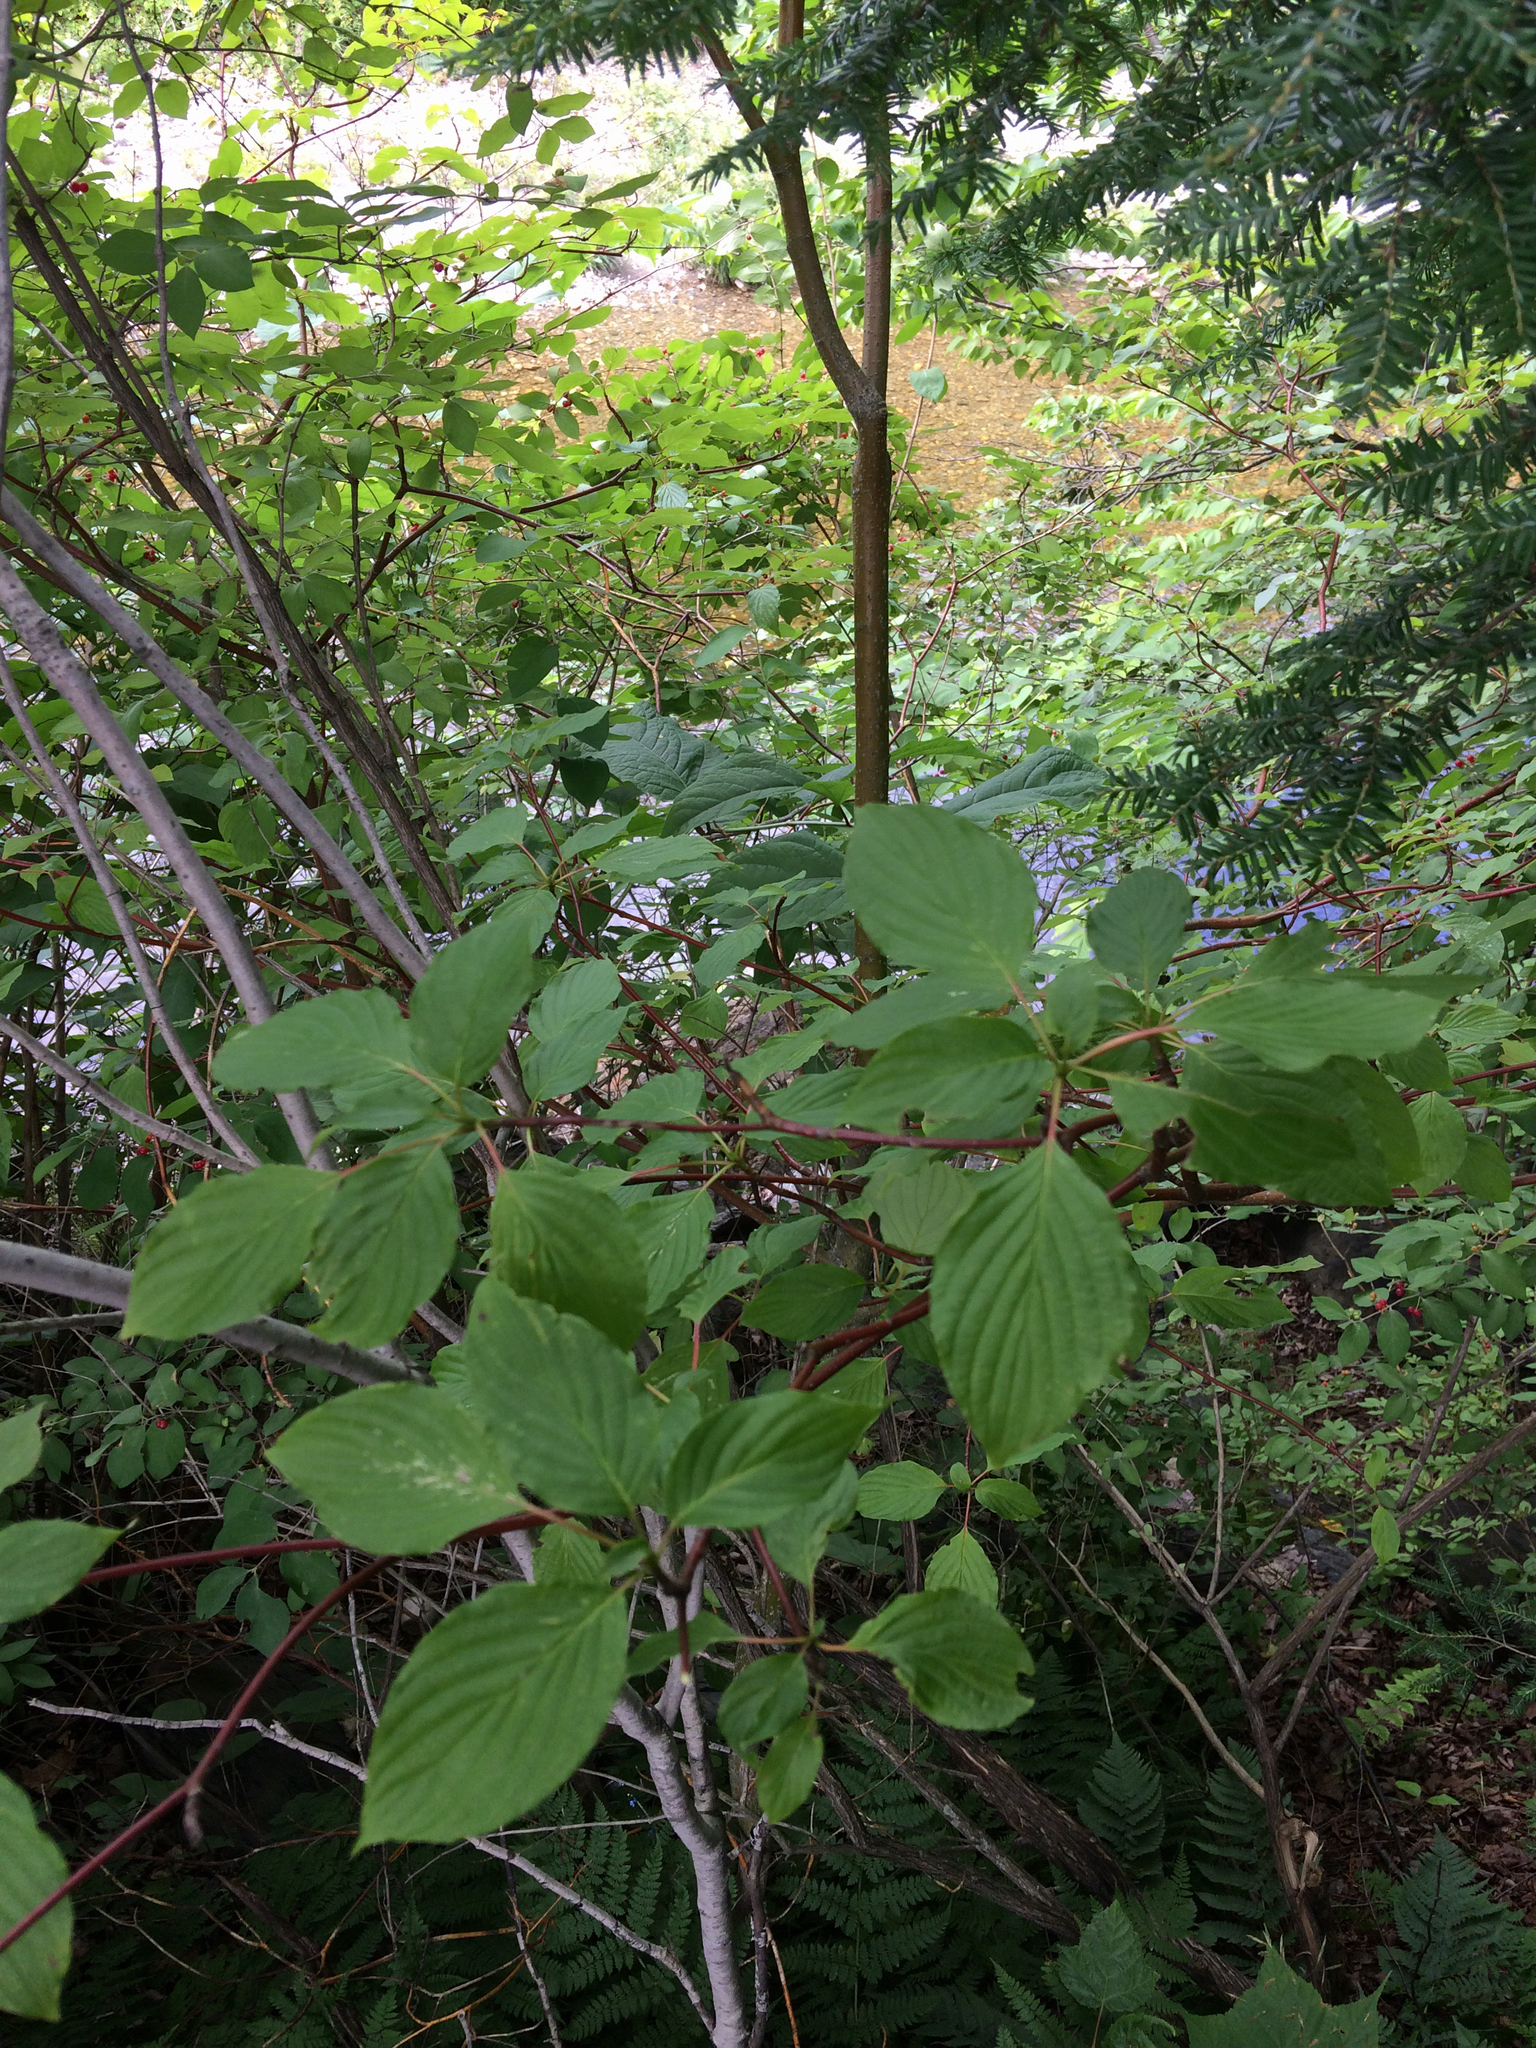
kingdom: Plantae
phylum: Tracheophyta
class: Magnoliopsida
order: Cornales
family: Cornaceae
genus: Cornus
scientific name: Cornus sericea
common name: Red-osier dogwood
